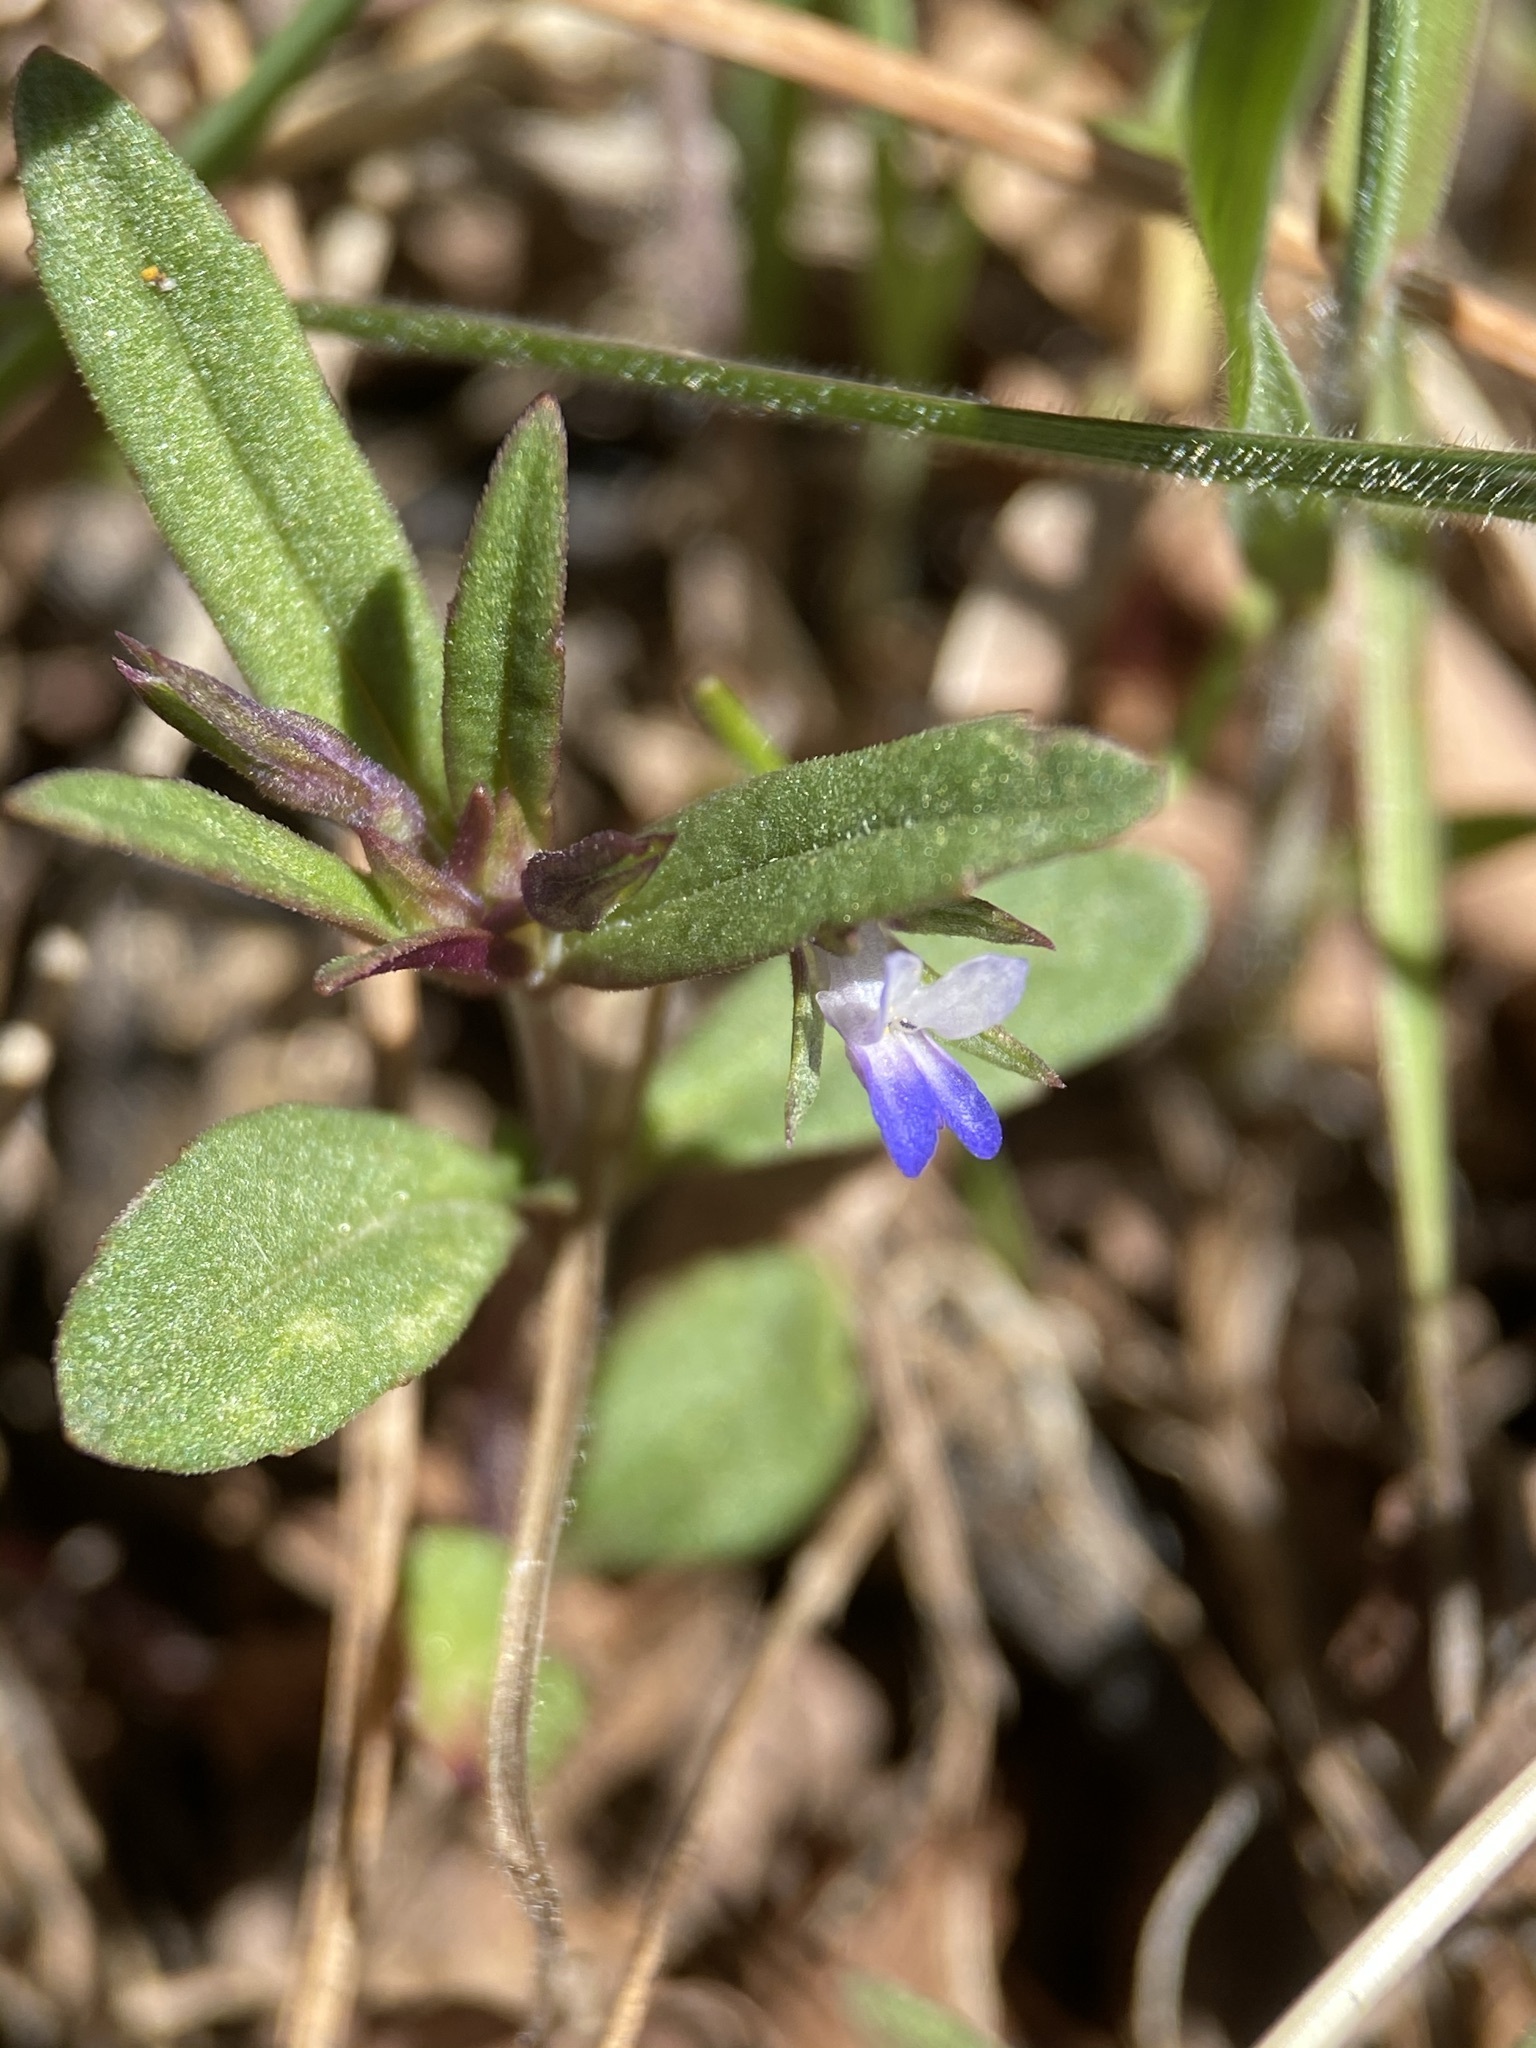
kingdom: Plantae
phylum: Tracheophyta
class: Magnoliopsida
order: Lamiales
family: Plantaginaceae
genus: Collinsia
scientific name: Collinsia parviflora
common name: Blue-lips
